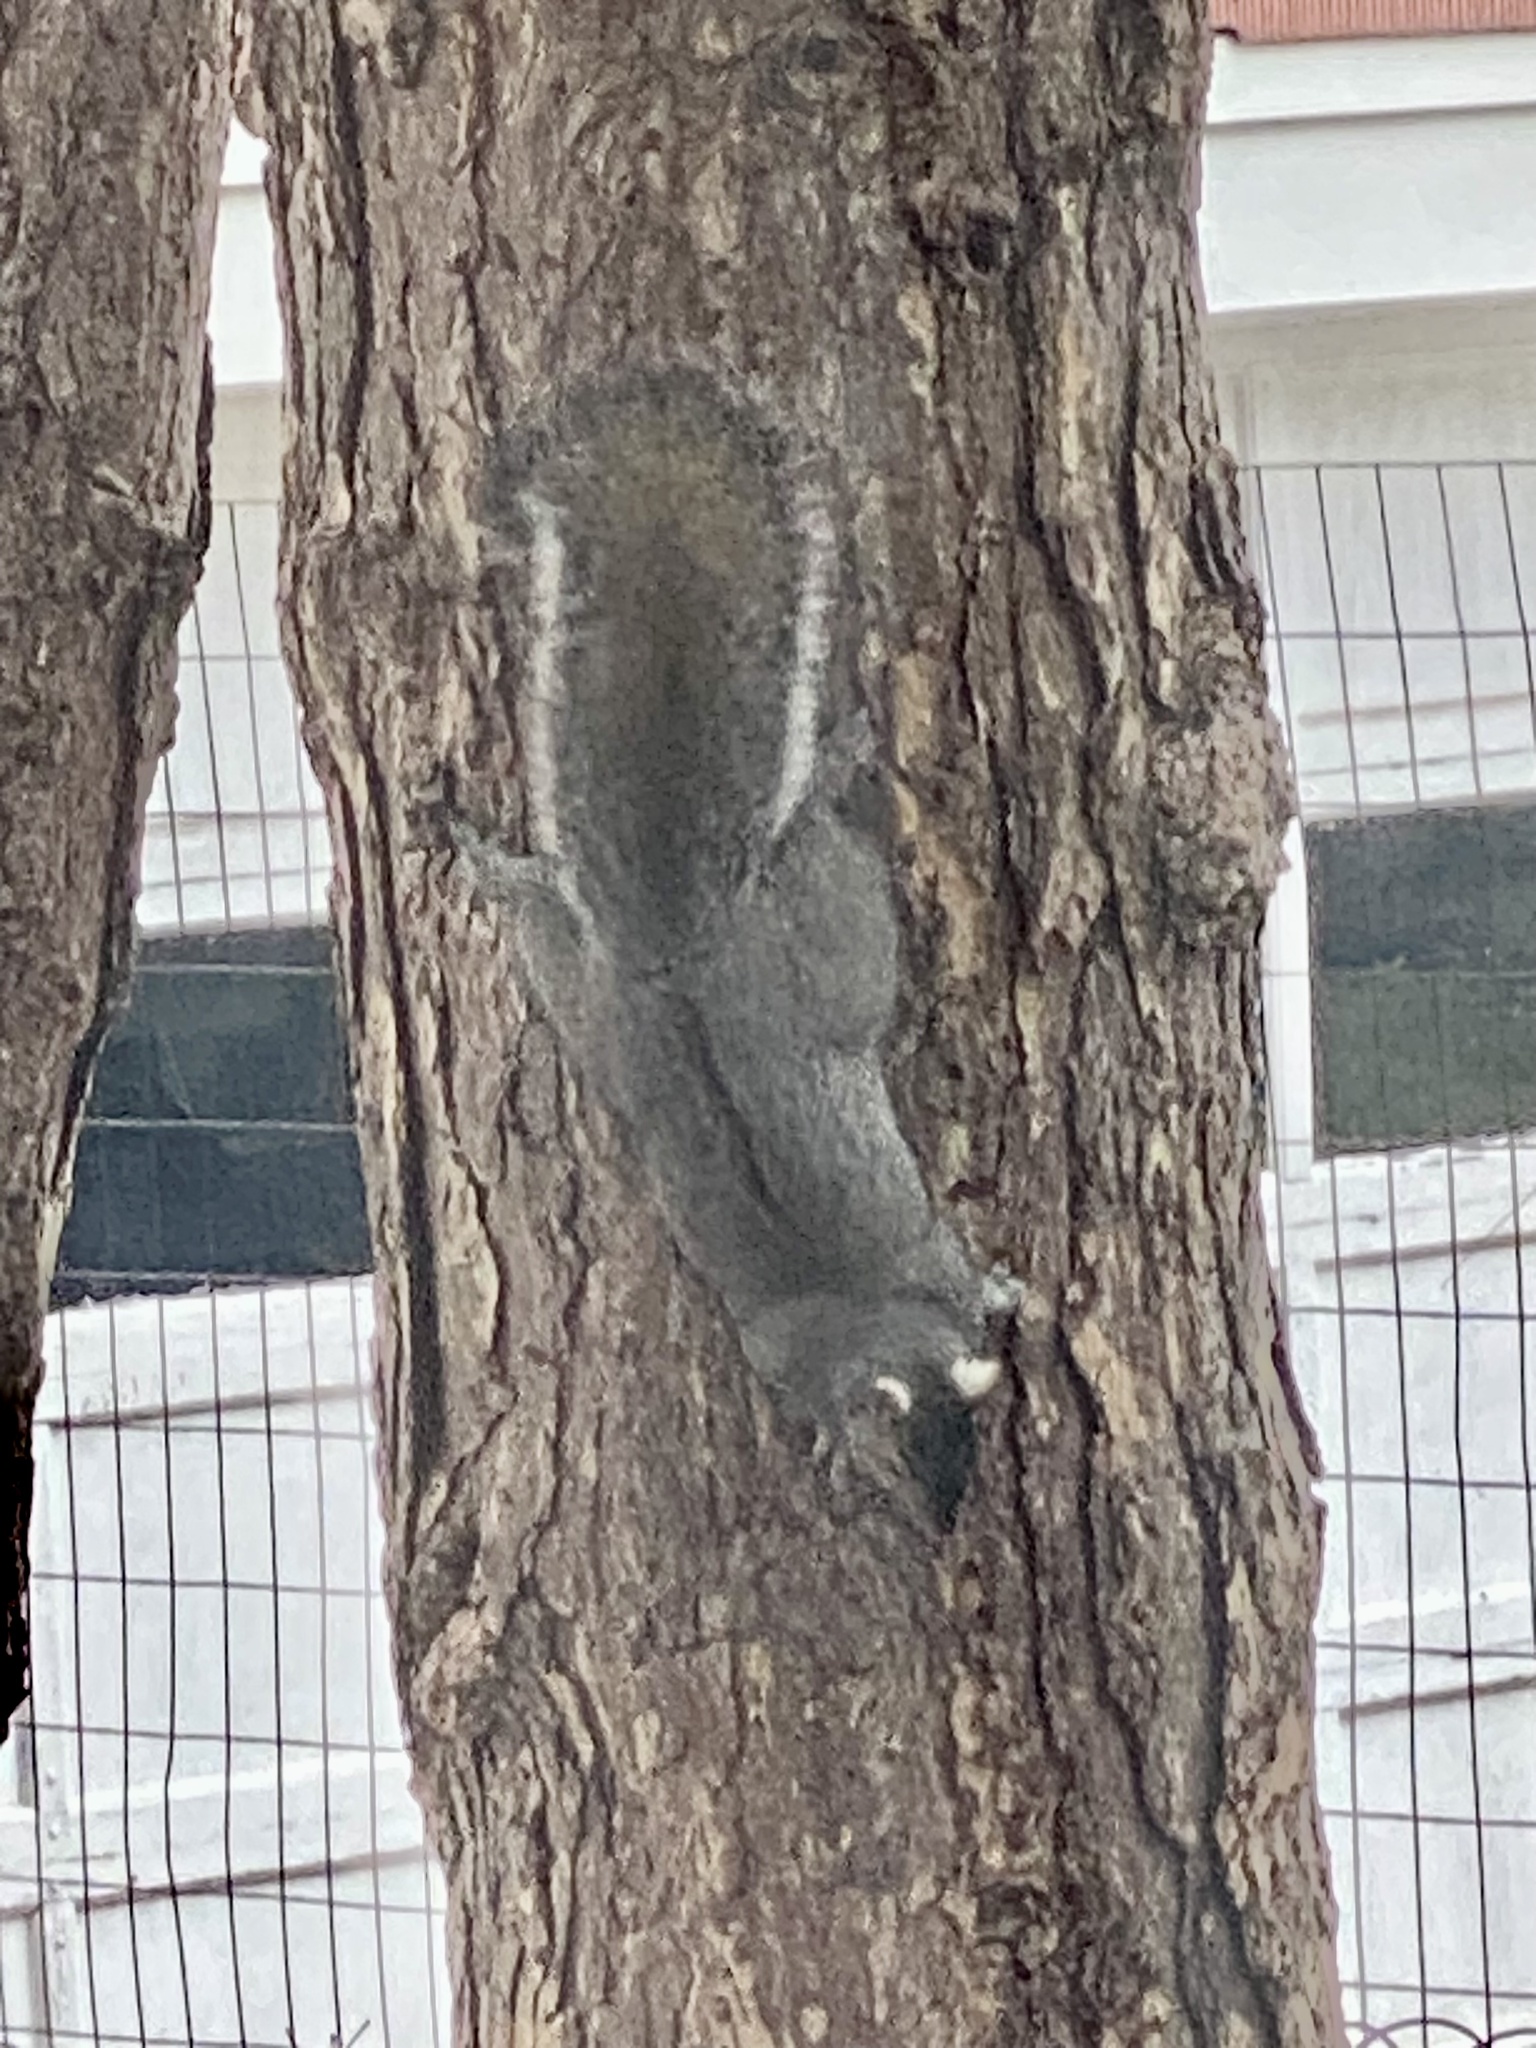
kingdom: Animalia
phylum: Chordata
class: Mammalia
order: Rodentia
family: Sciuridae
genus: Sciurus
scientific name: Sciurus carolinensis
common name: Eastern gray squirrel
